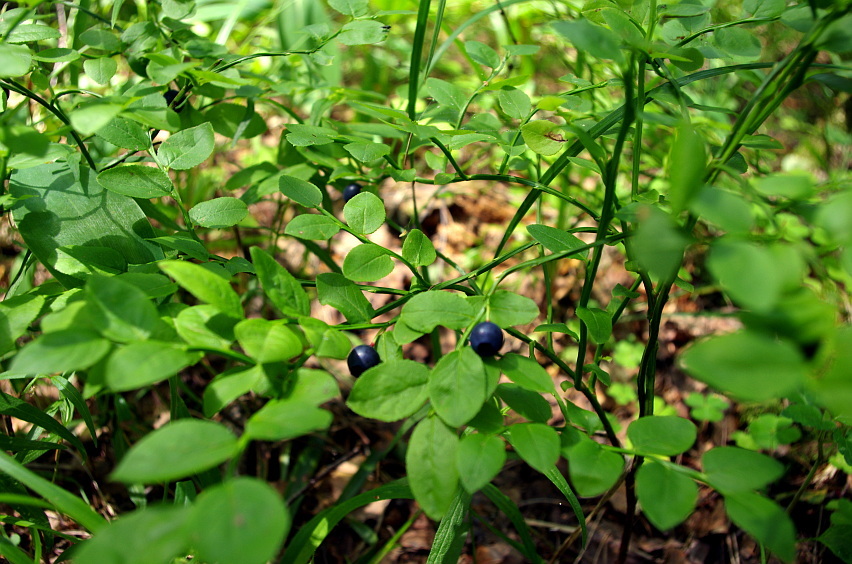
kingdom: Plantae
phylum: Tracheophyta
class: Magnoliopsida
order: Ericales
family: Ericaceae
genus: Vaccinium
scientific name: Vaccinium myrtillus
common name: Bilberry
